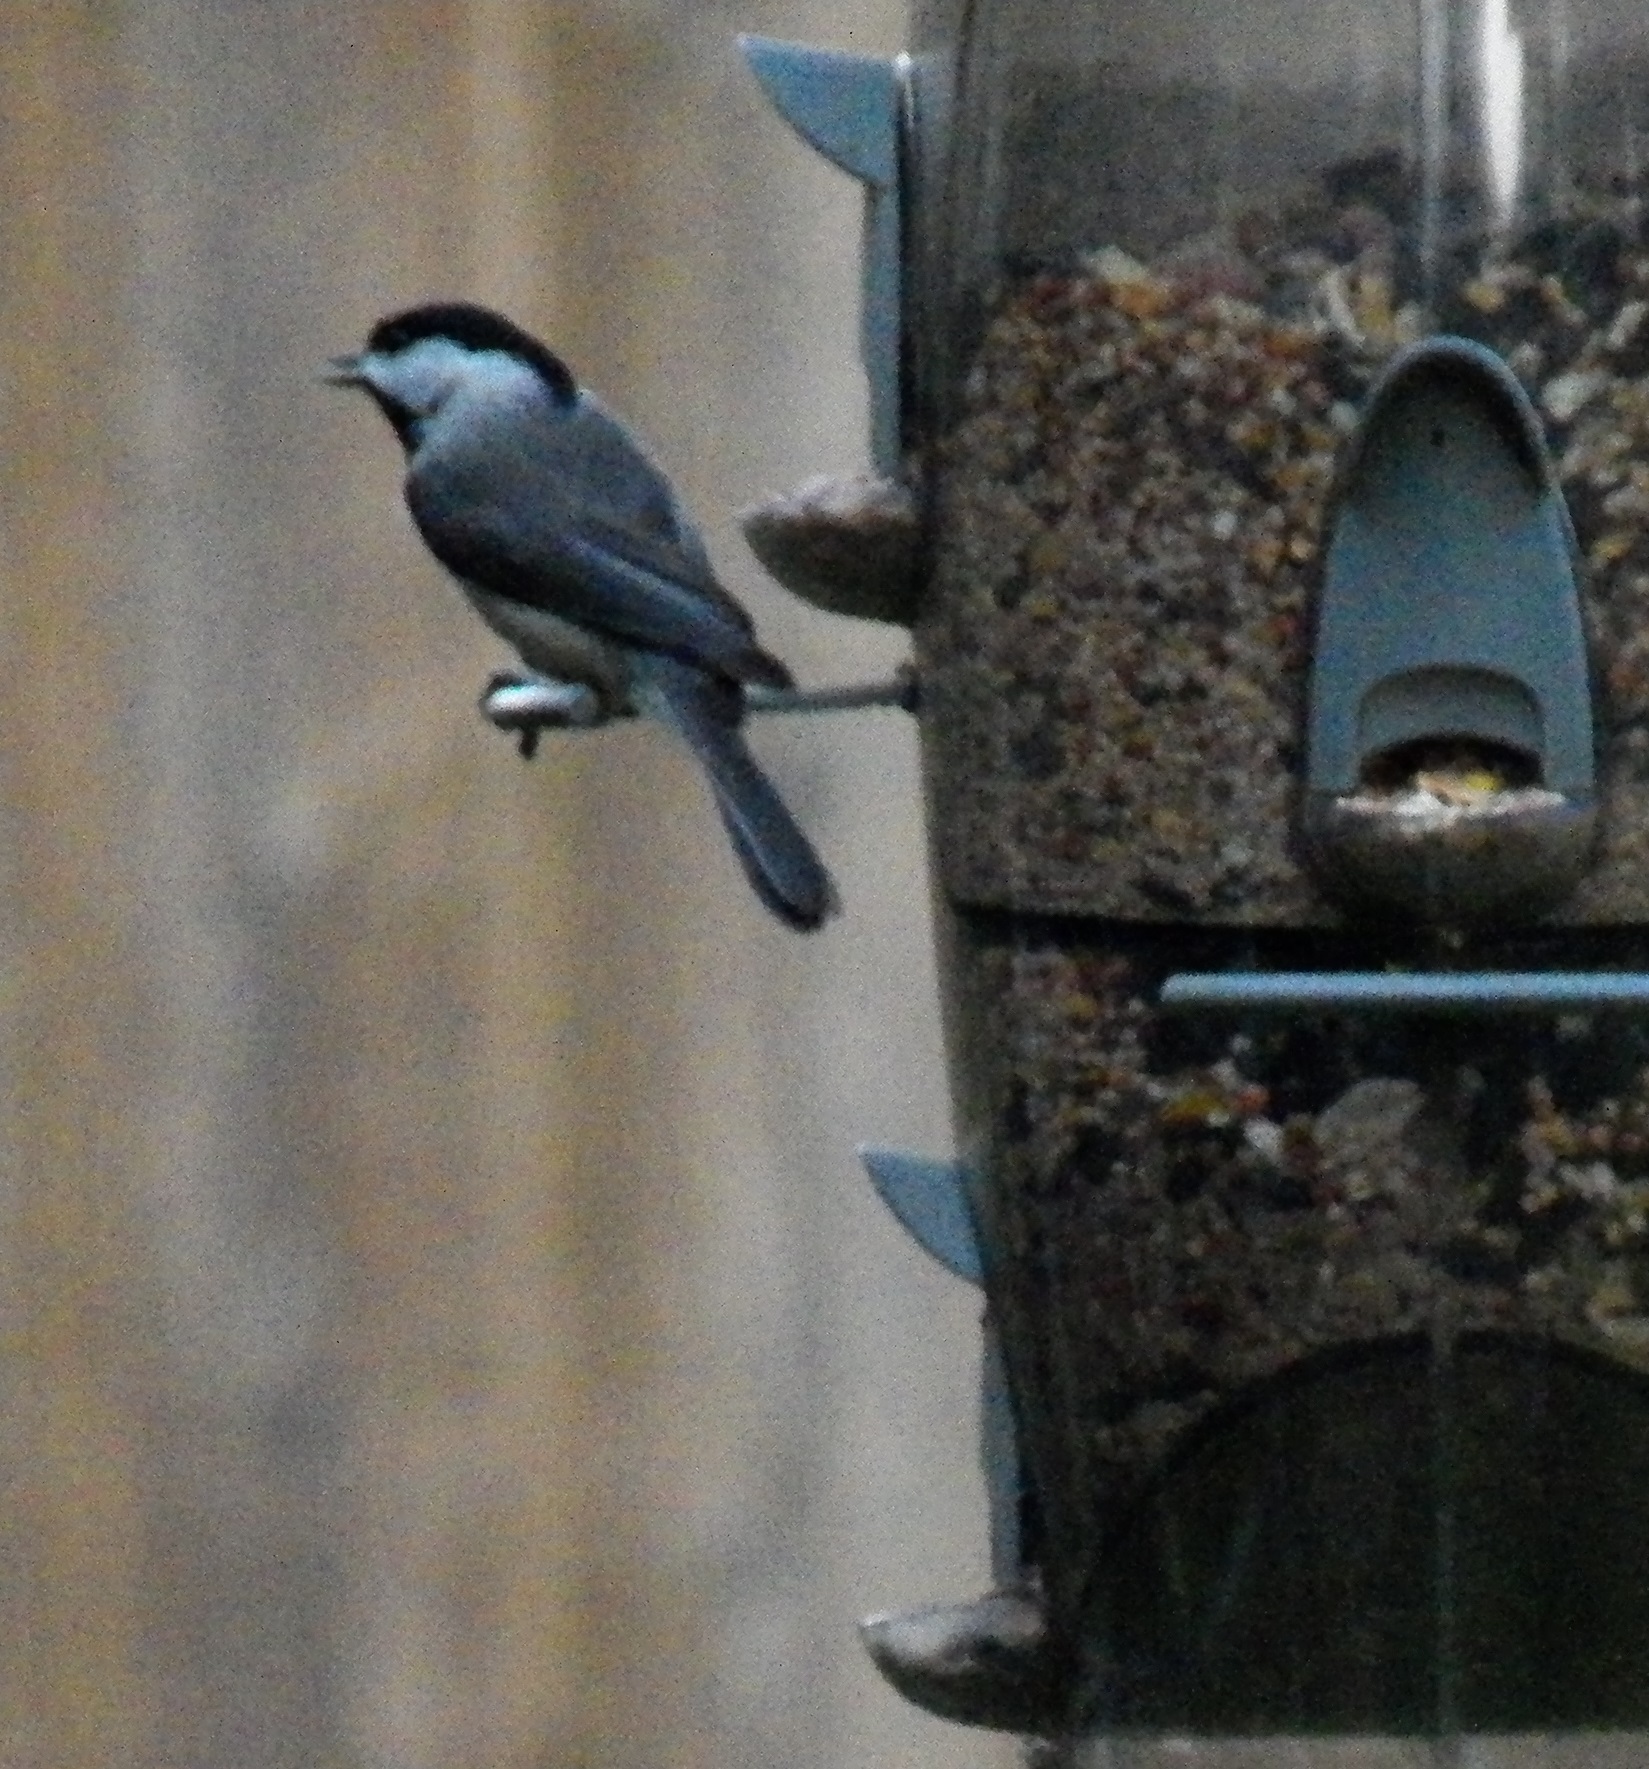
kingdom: Animalia
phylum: Chordata
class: Aves
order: Passeriformes
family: Paridae
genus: Poecile
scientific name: Poecile carolinensis
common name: Carolina chickadee
